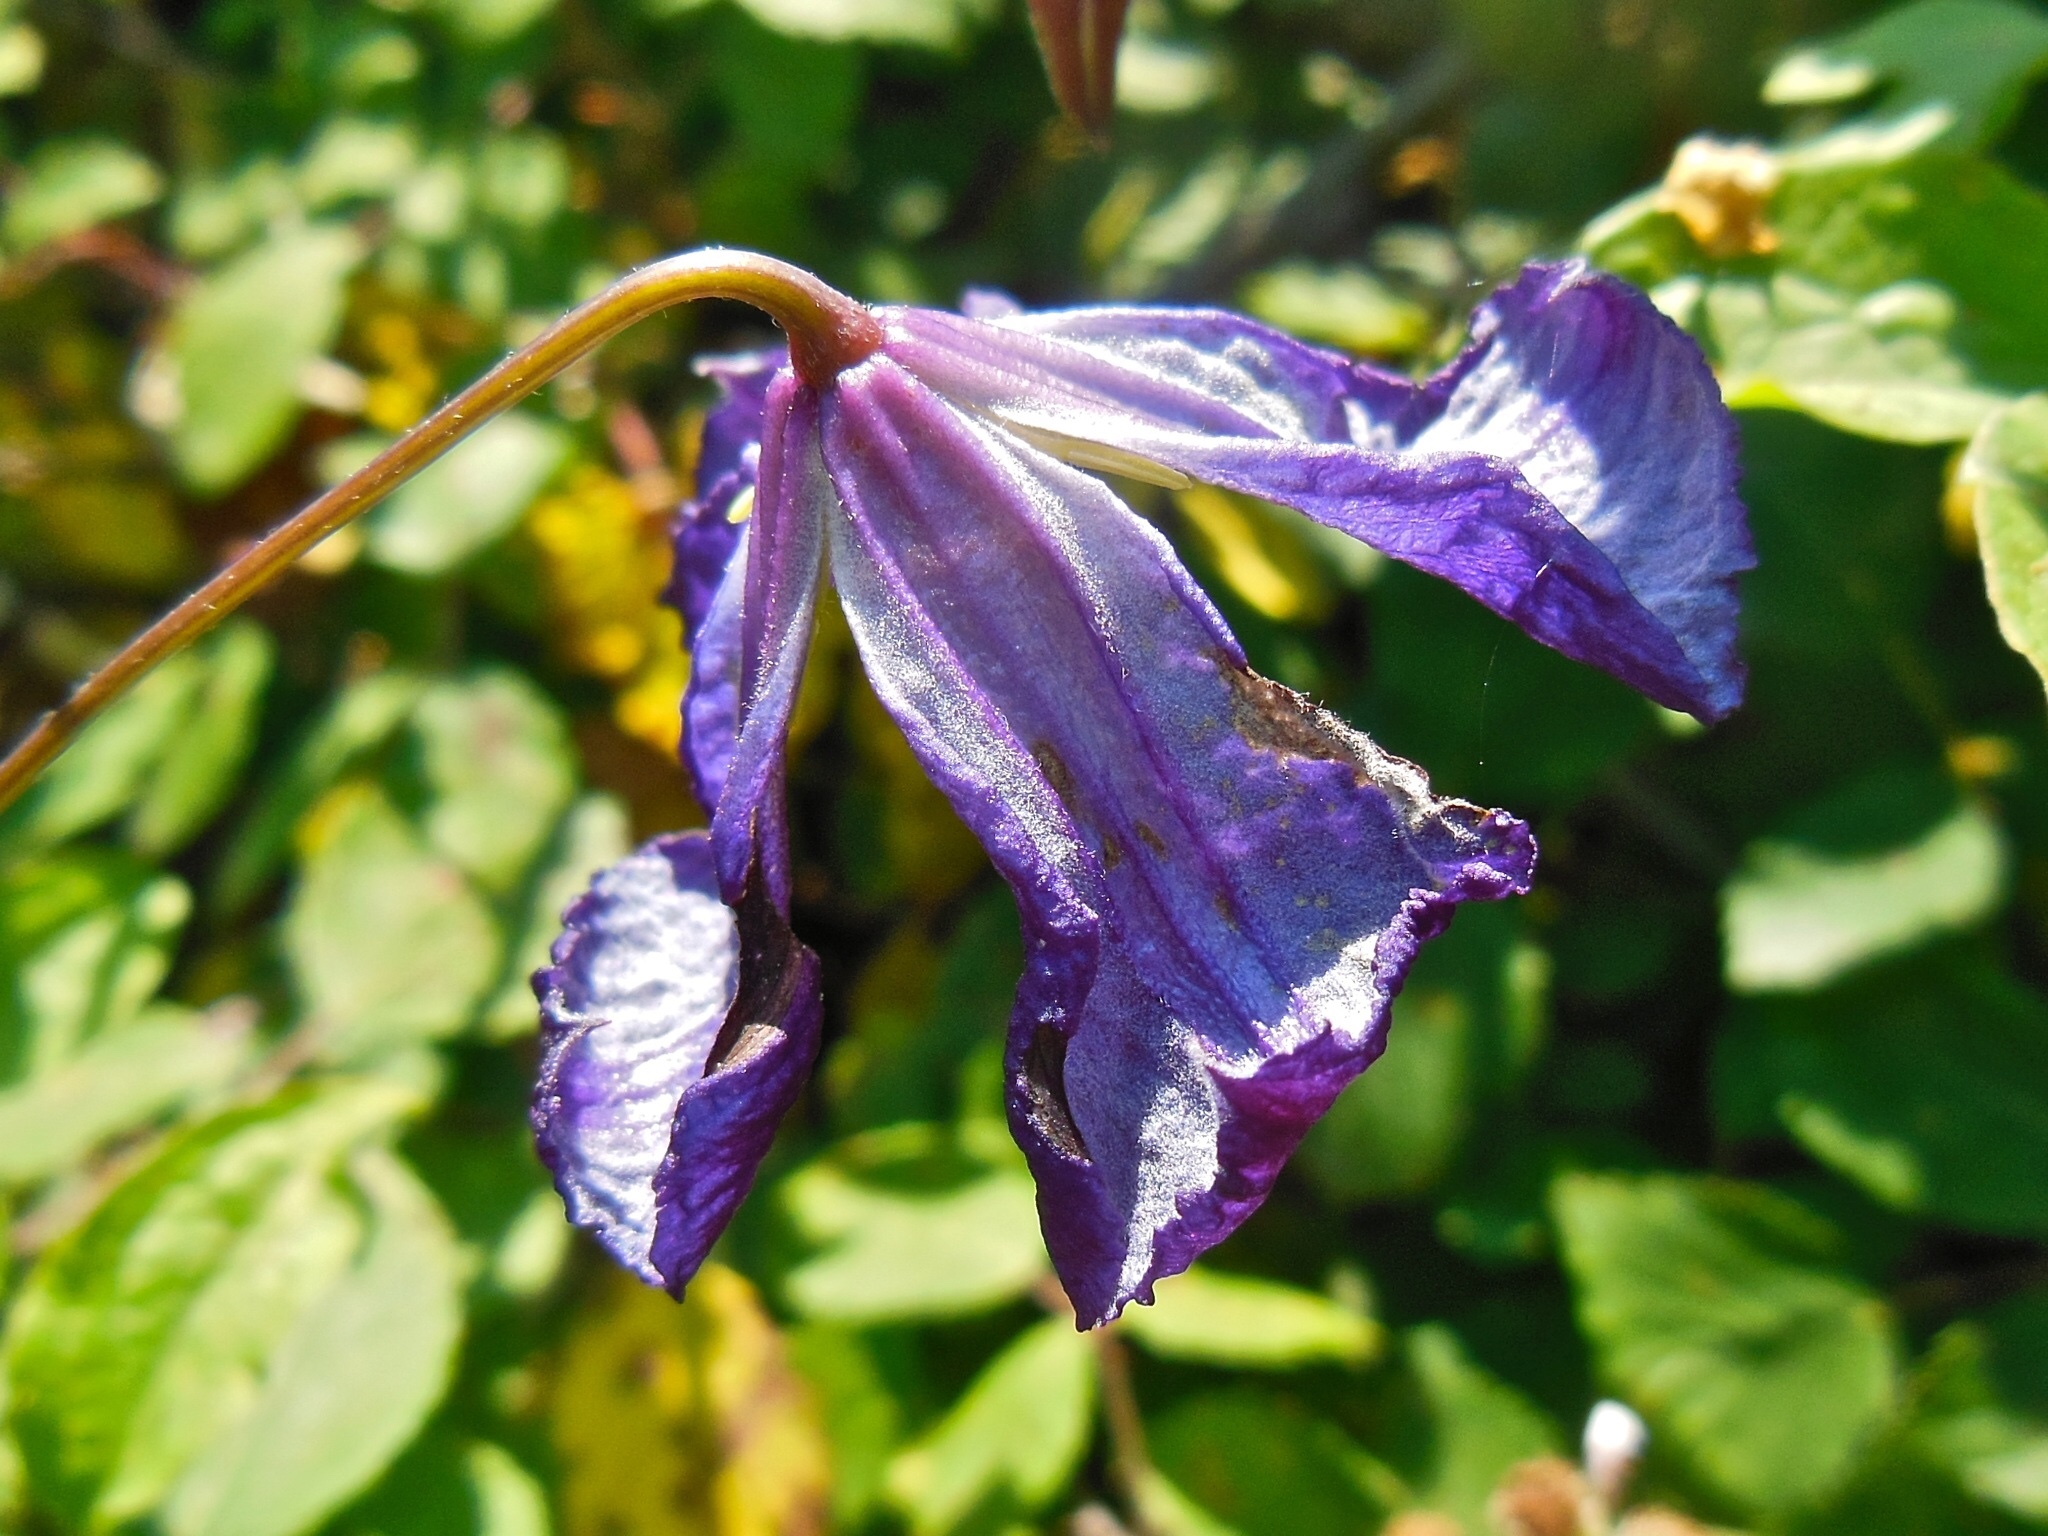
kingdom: Plantae
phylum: Tracheophyta
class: Magnoliopsida
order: Ranunculales
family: Ranunculaceae
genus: Clematis
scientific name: Clematis viticella
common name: Purple clematis
